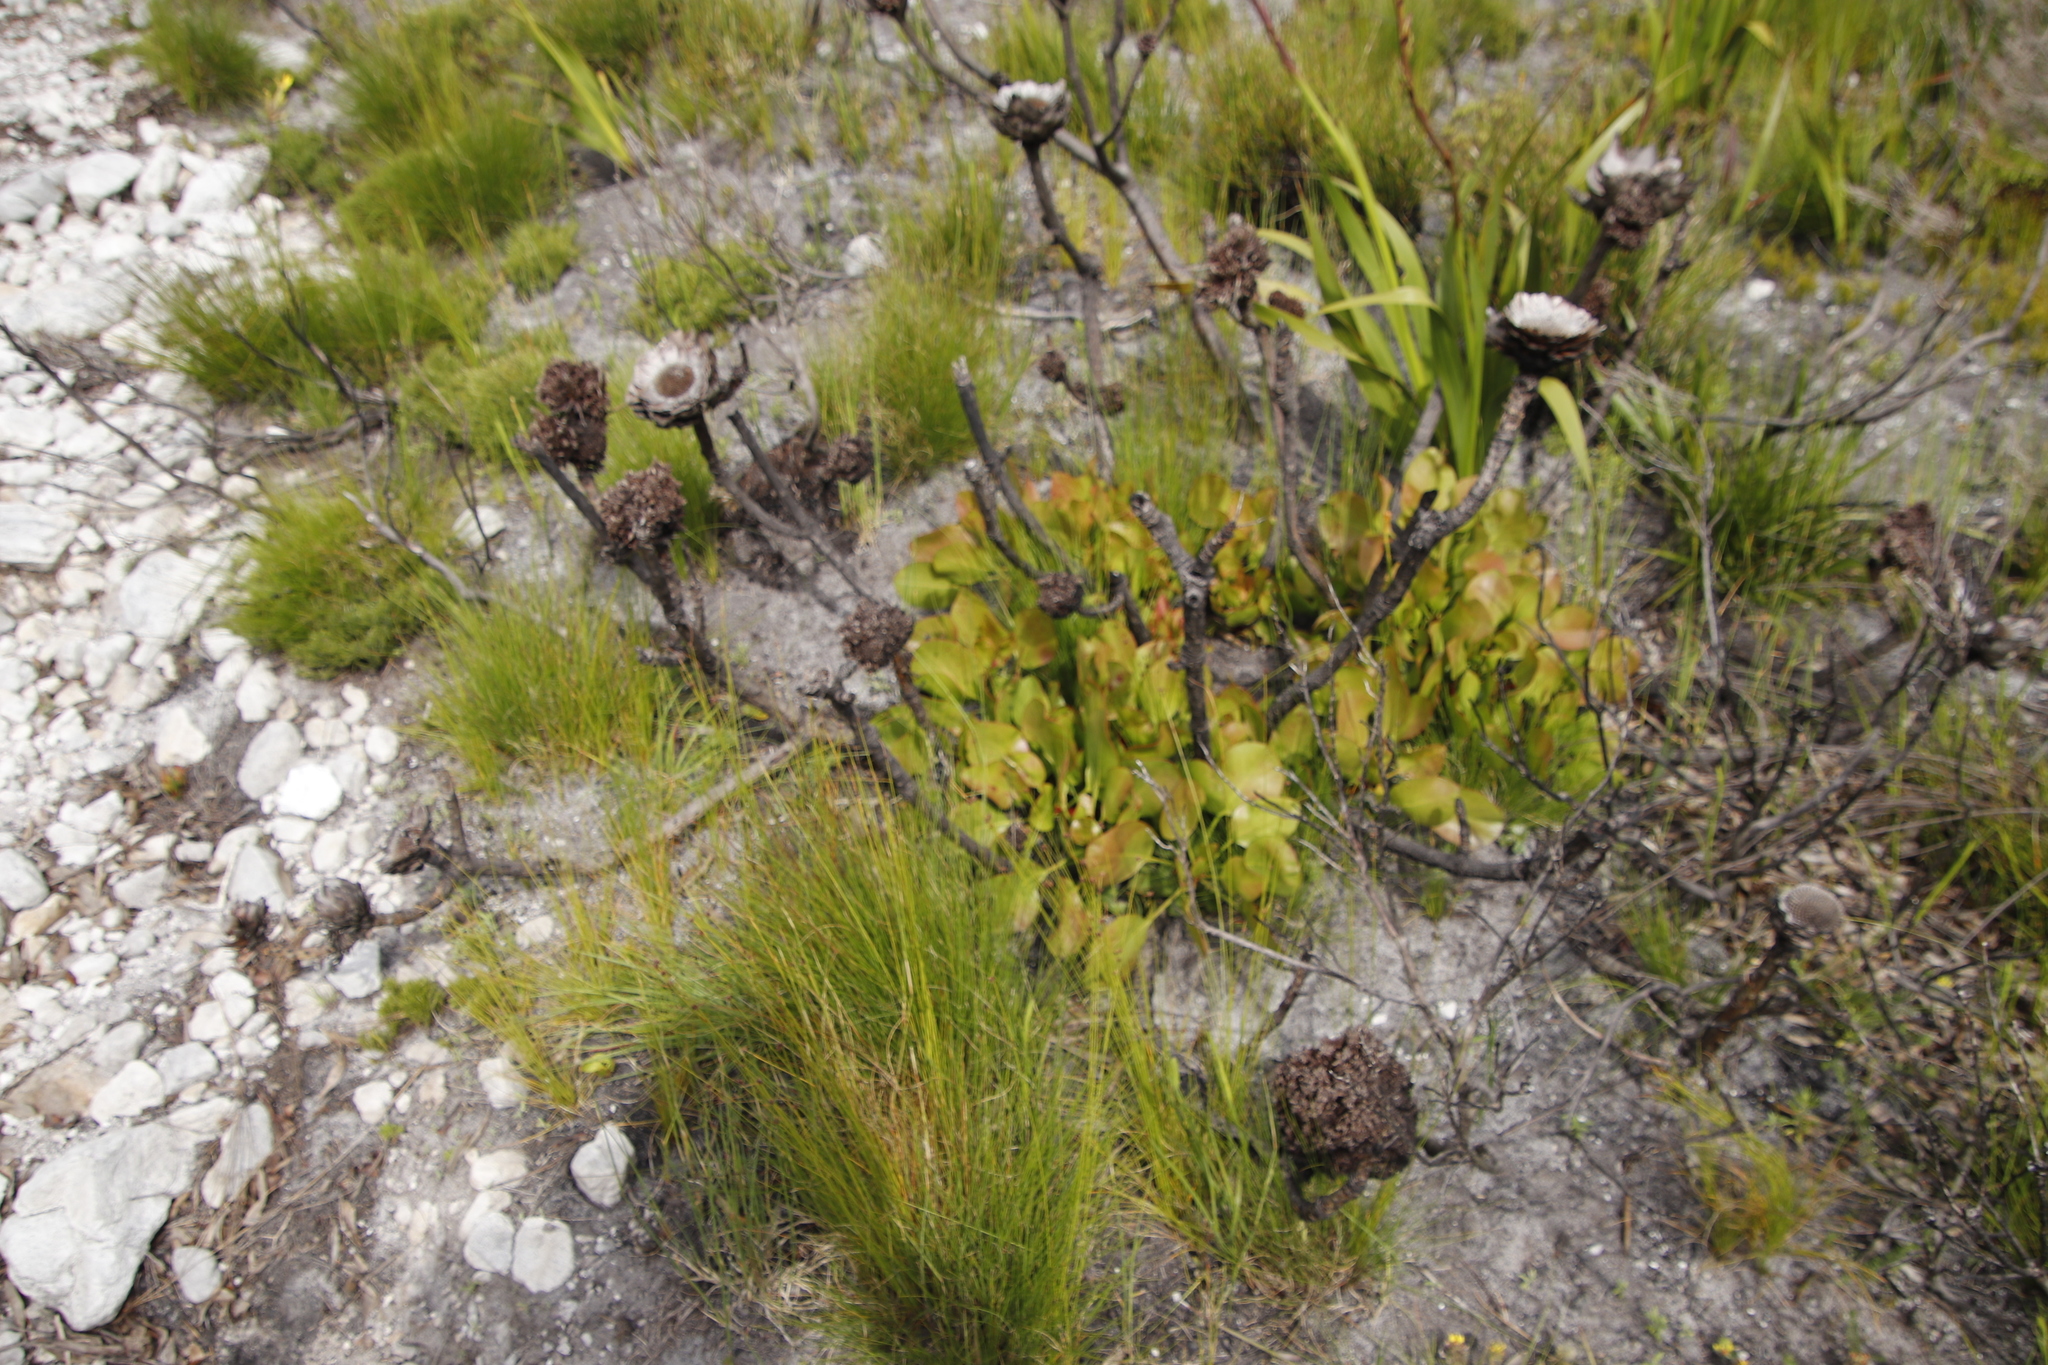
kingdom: Plantae
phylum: Tracheophyta
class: Magnoliopsida
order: Proteales
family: Proteaceae
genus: Protea
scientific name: Protea cynaroides
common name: King protea
